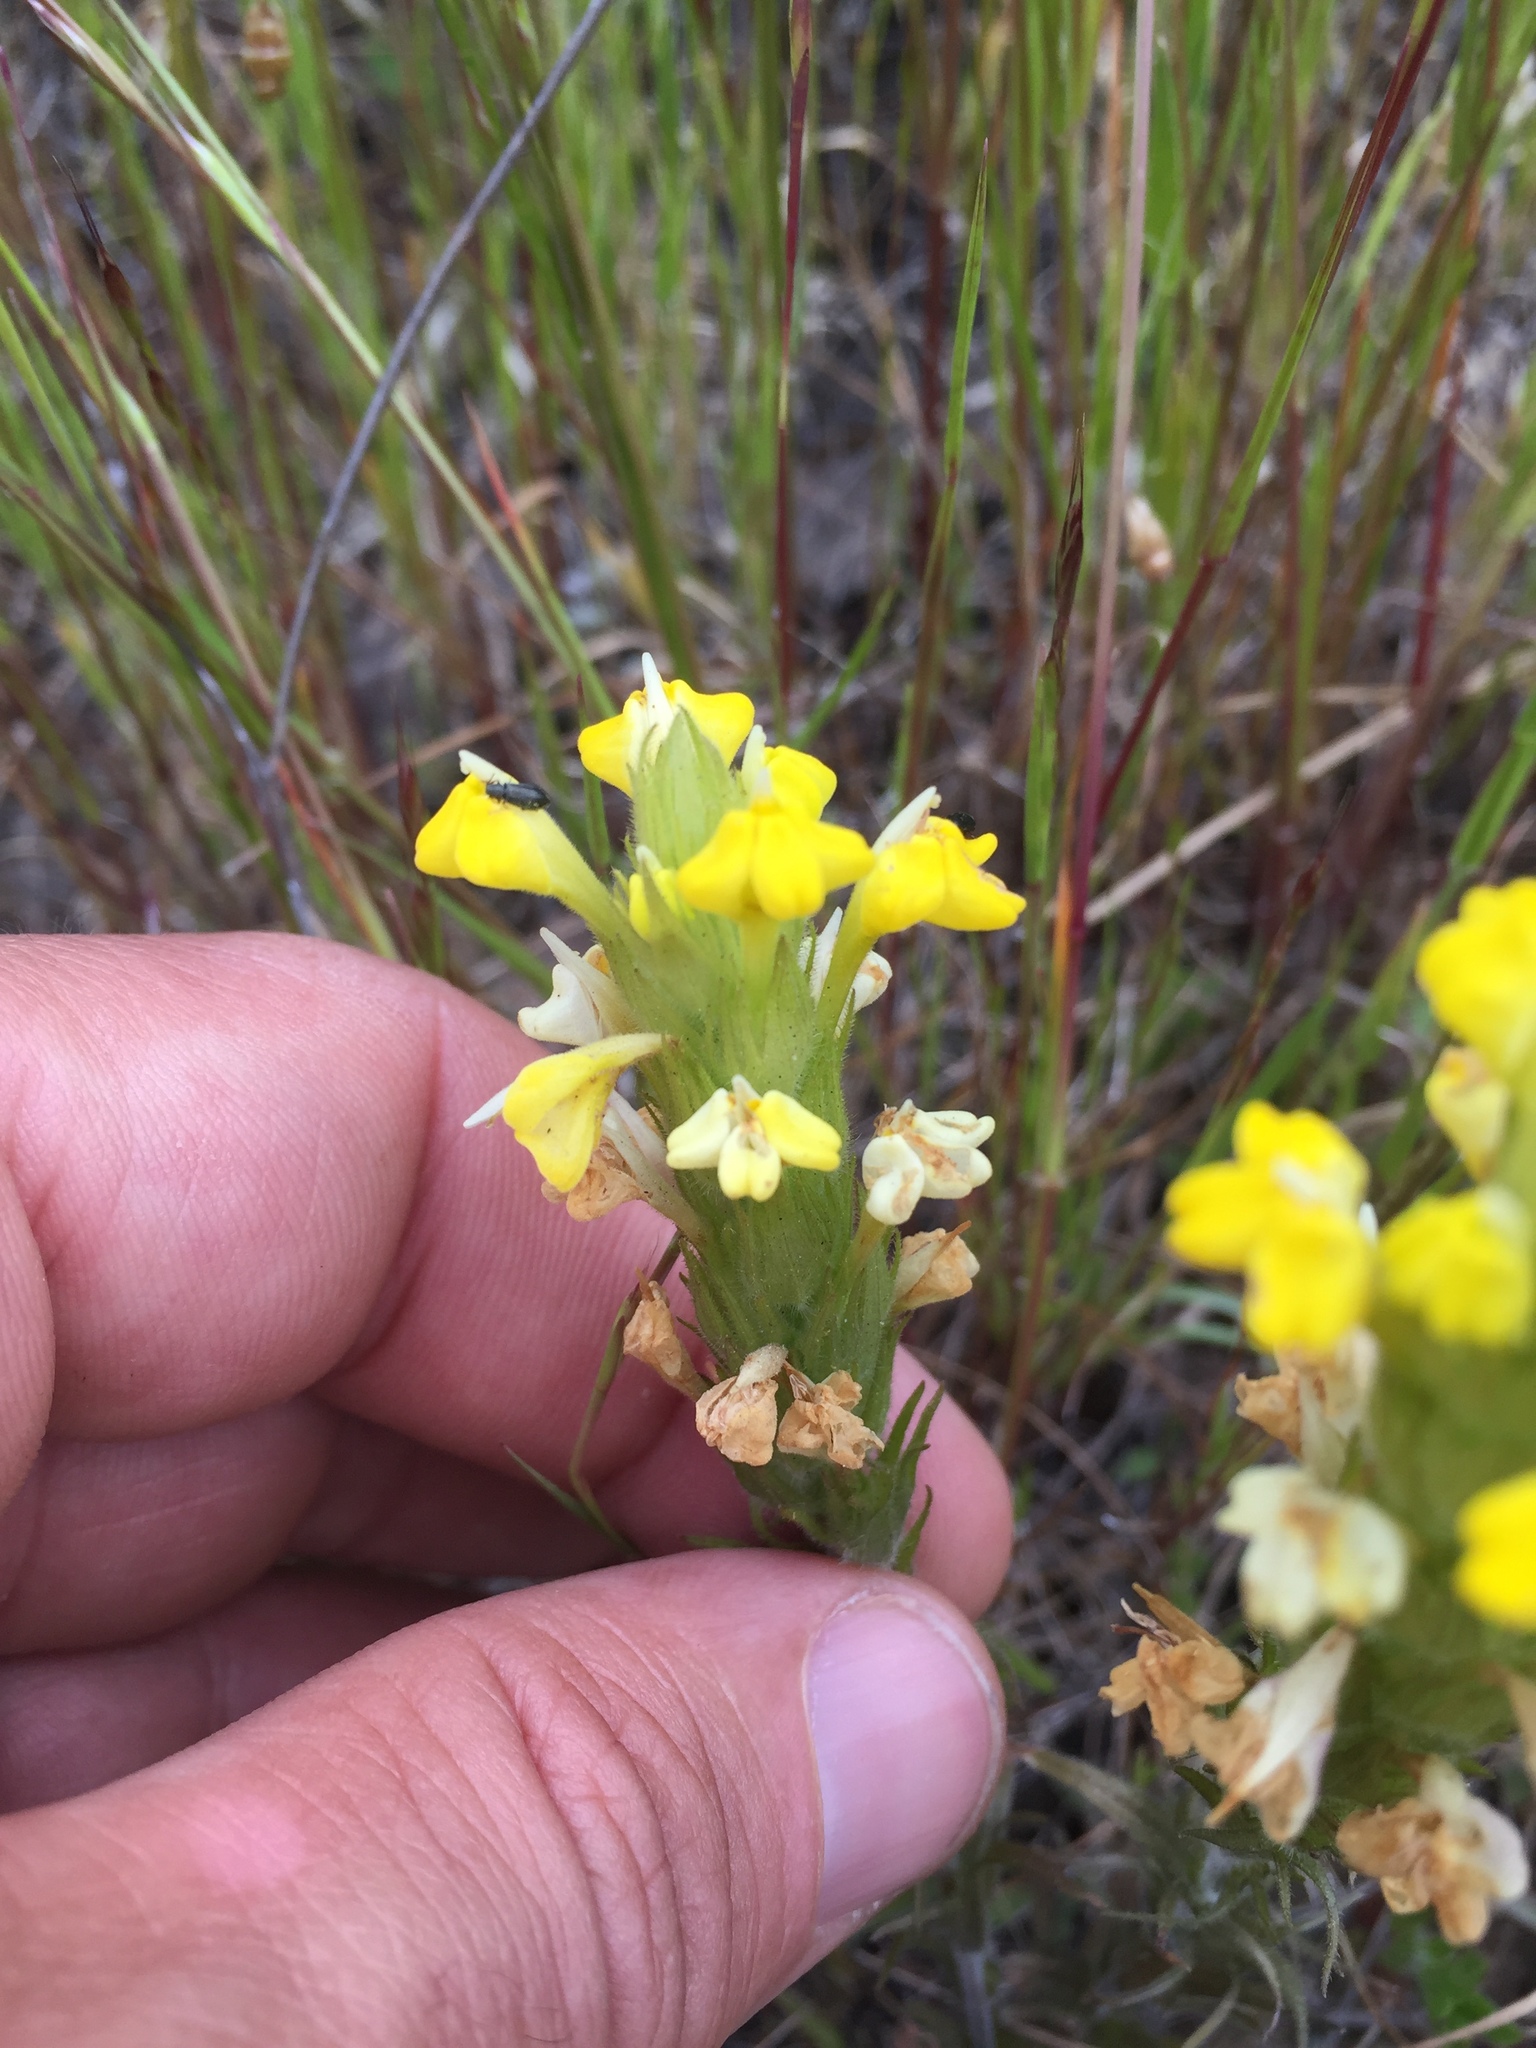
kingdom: Plantae
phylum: Tracheophyta
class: Magnoliopsida
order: Lamiales
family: Orobanchaceae
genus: Castilleja
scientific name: Castilleja rubicundula
